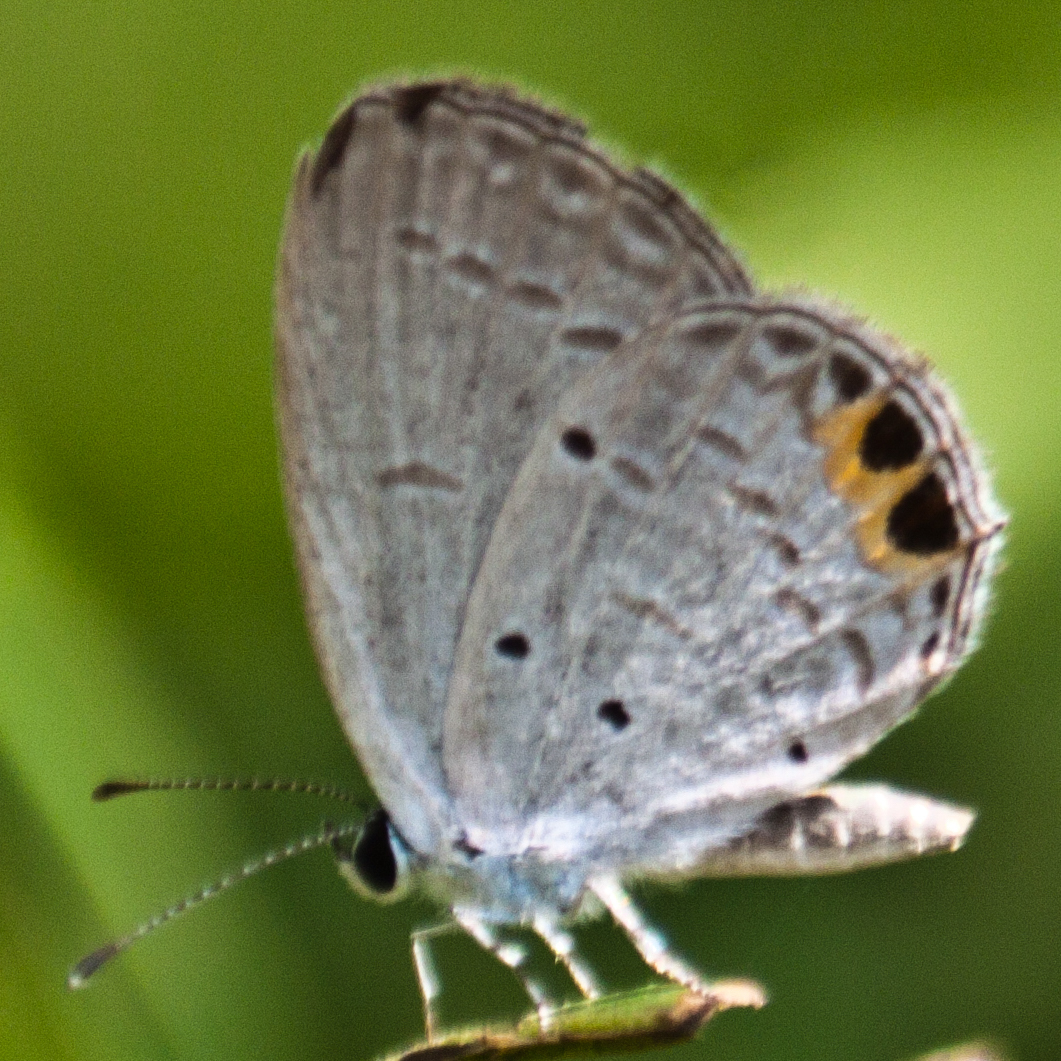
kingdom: Animalia
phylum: Arthropoda
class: Insecta
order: Lepidoptera
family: Lycaenidae
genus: Everes
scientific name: Everes lacturnus
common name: Orange-tipped pea-blue
